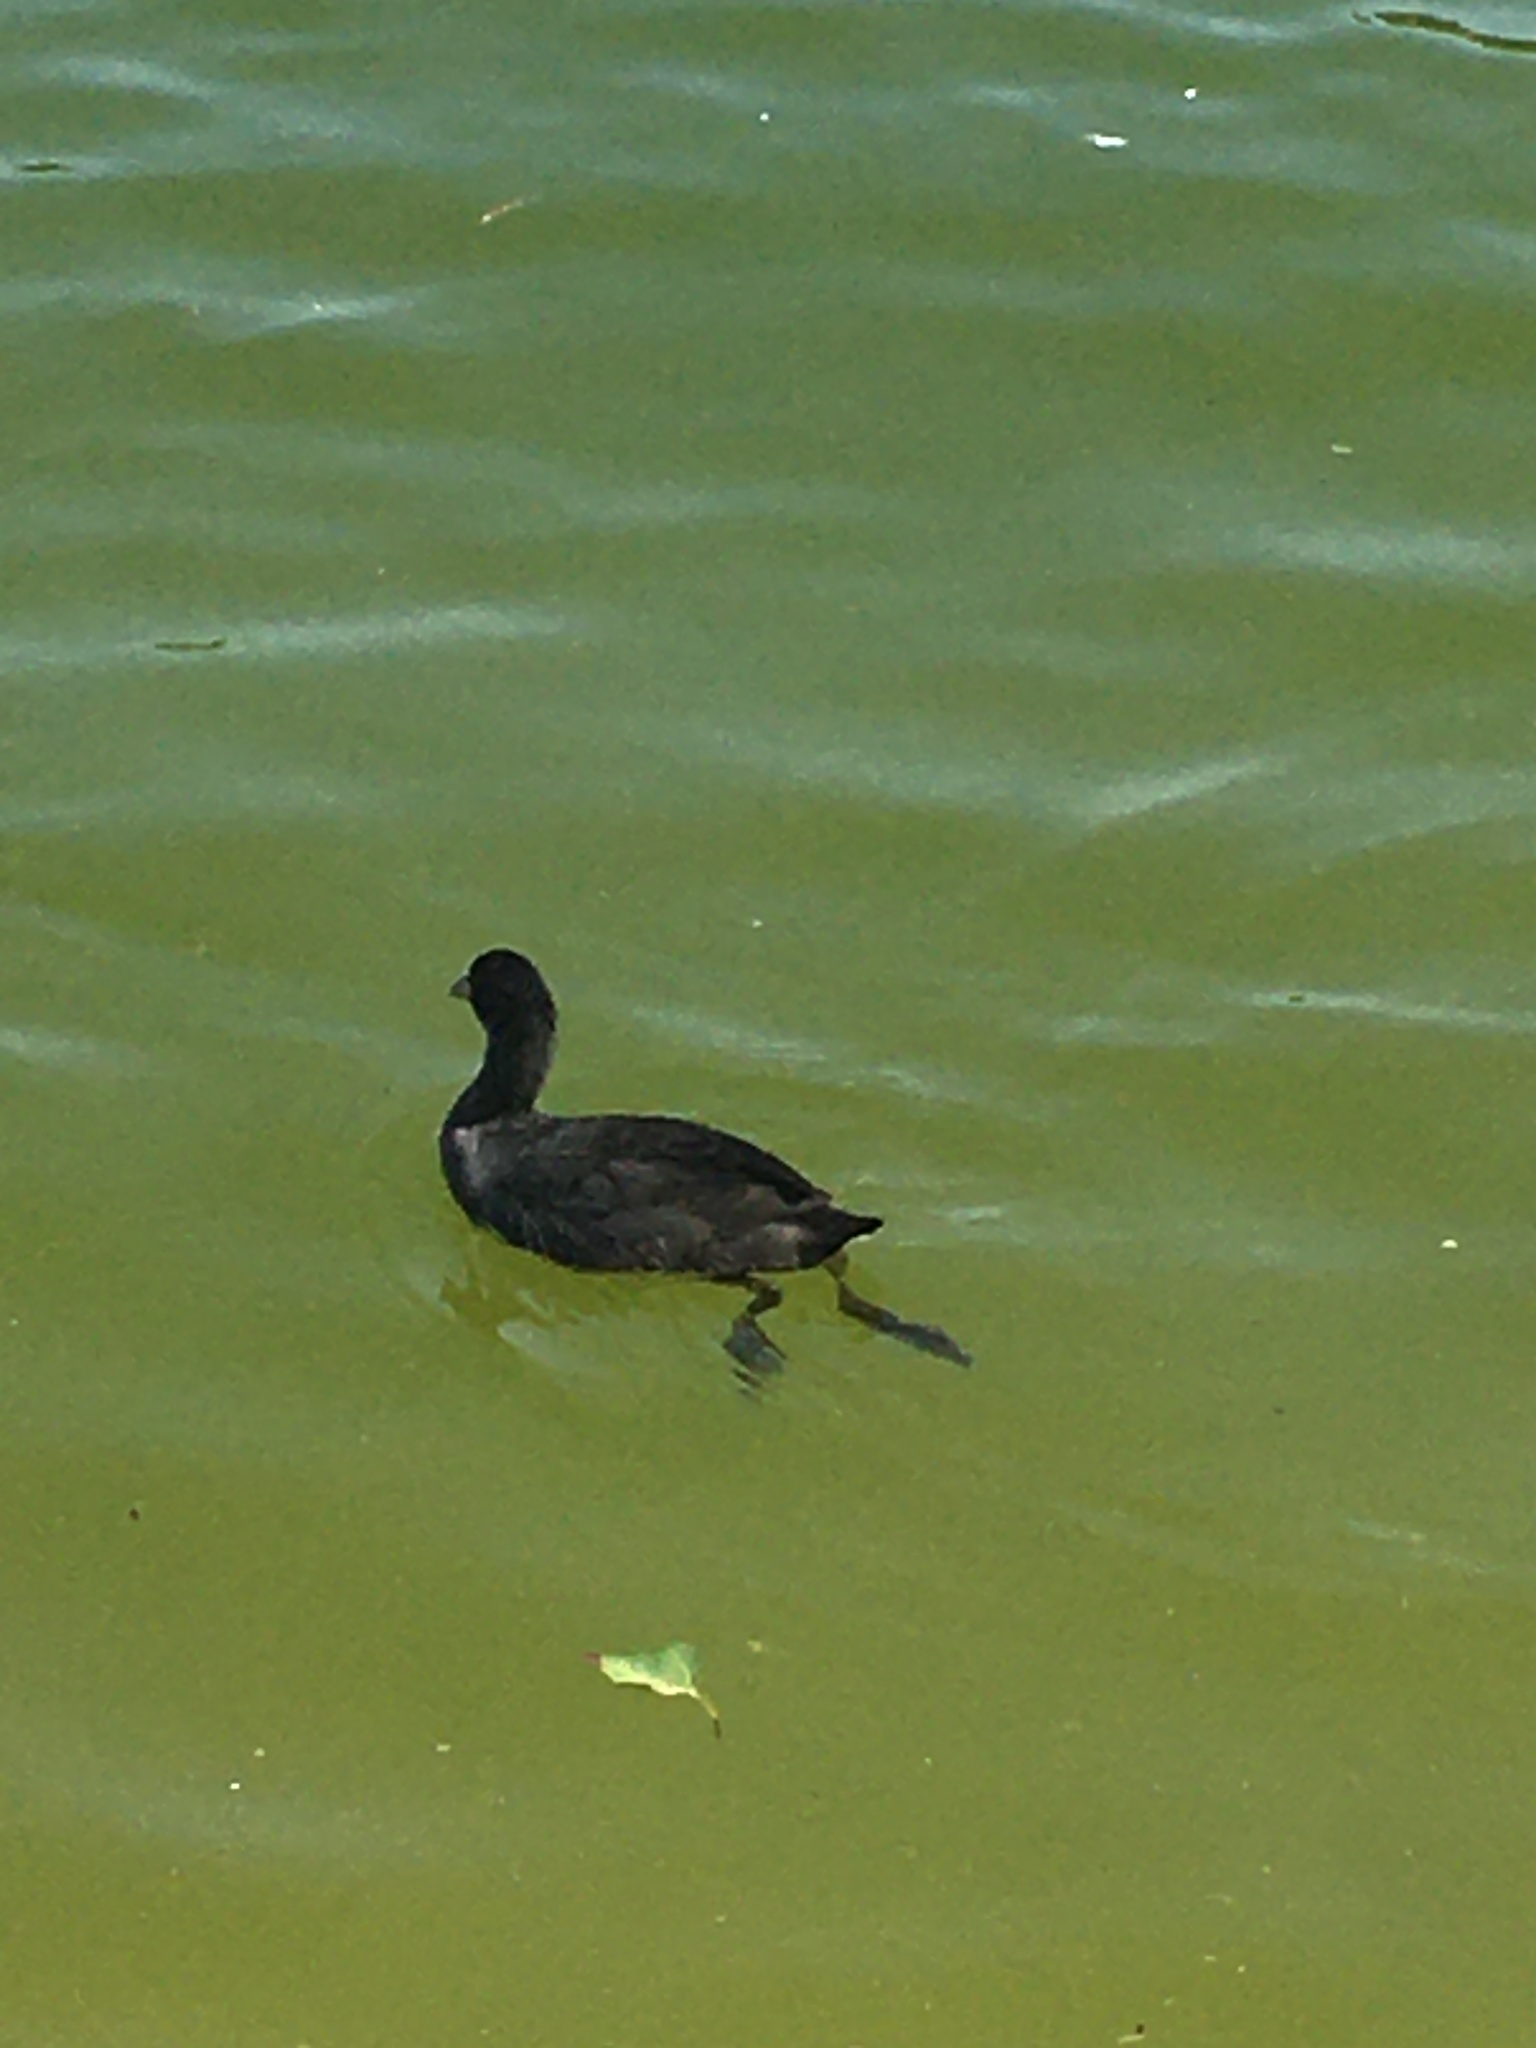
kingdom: Animalia
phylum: Chordata
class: Aves
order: Gruiformes
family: Rallidae
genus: Fulica
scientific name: Fulica atra
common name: Eurasian coot
